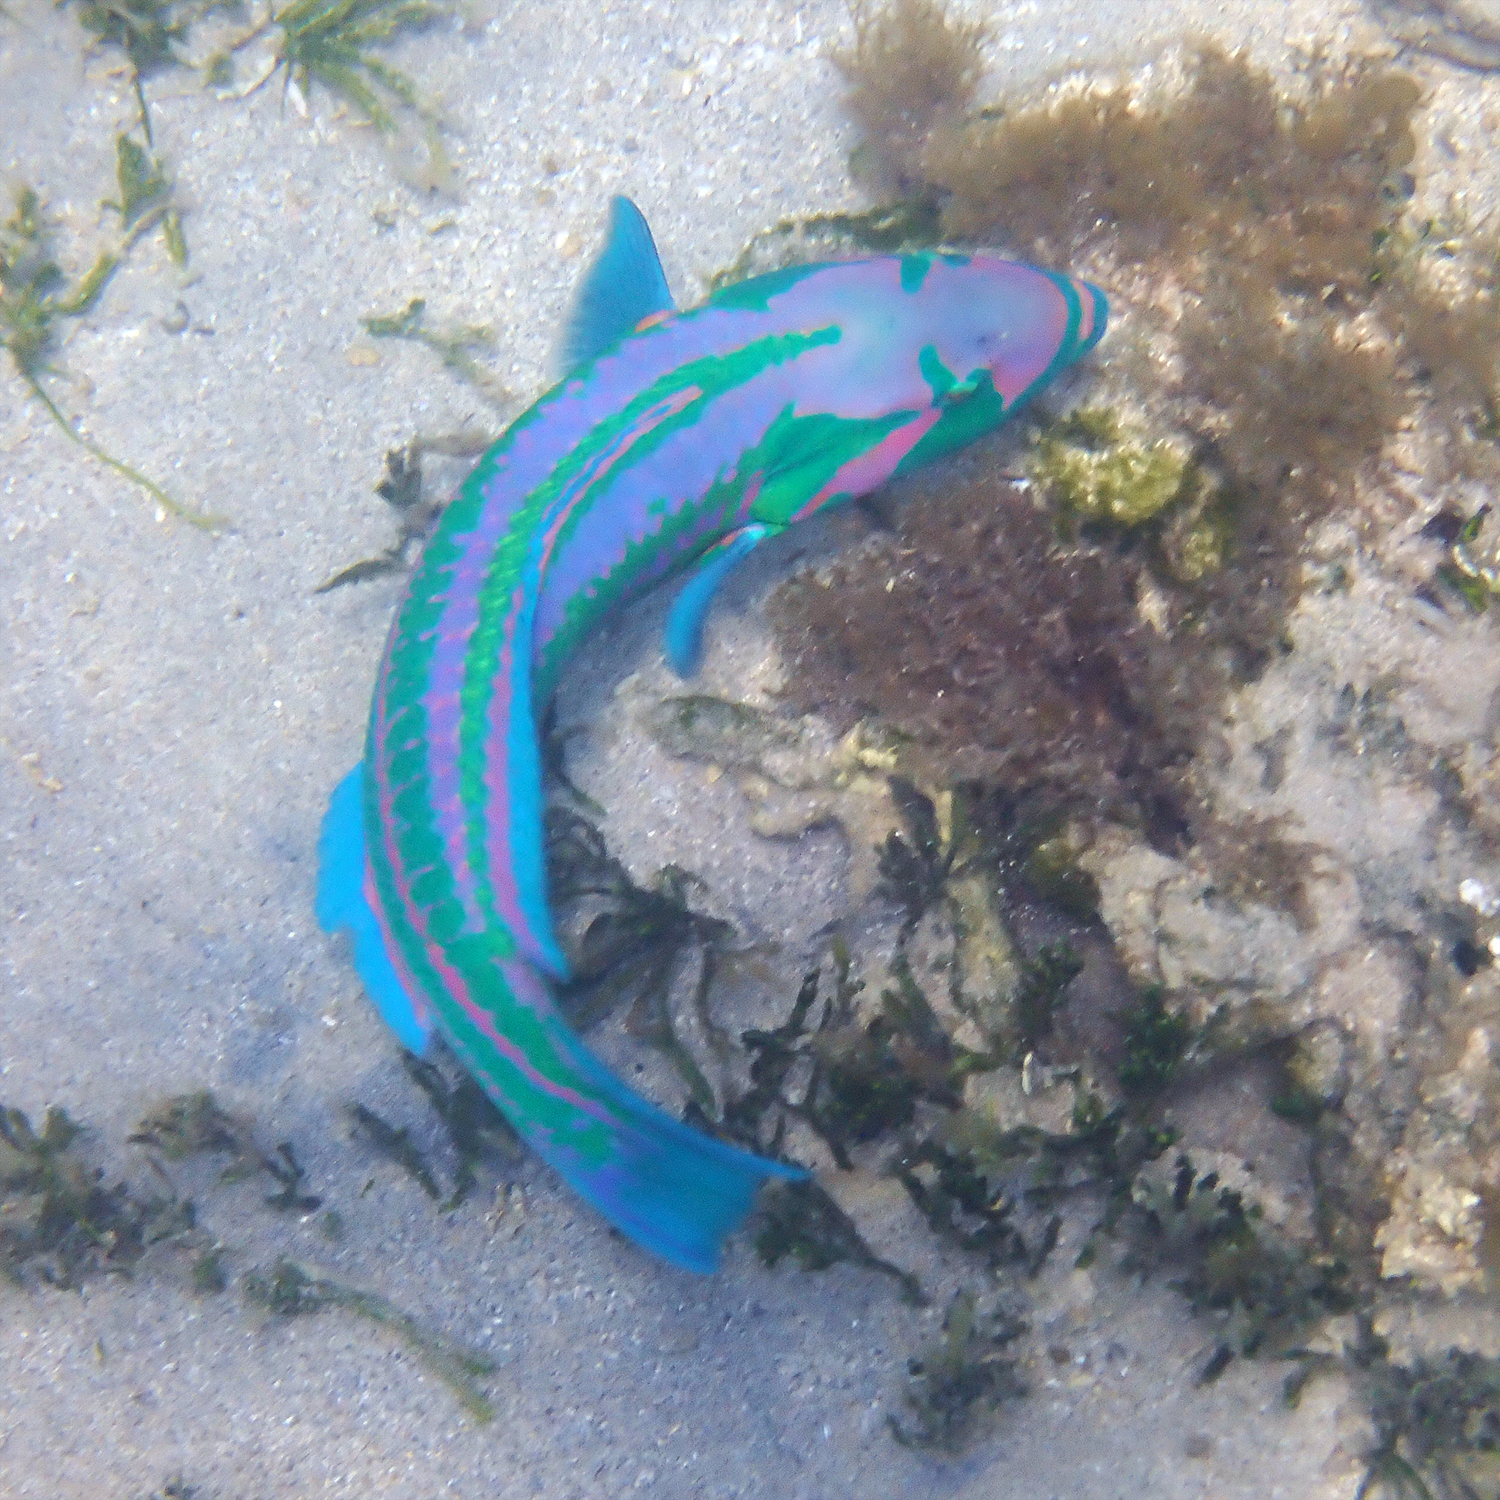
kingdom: Animalia
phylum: Chordata
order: Perciformes
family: Labridae
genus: Thalassoma
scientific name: Thalassoma purpureum
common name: Parrotfish
